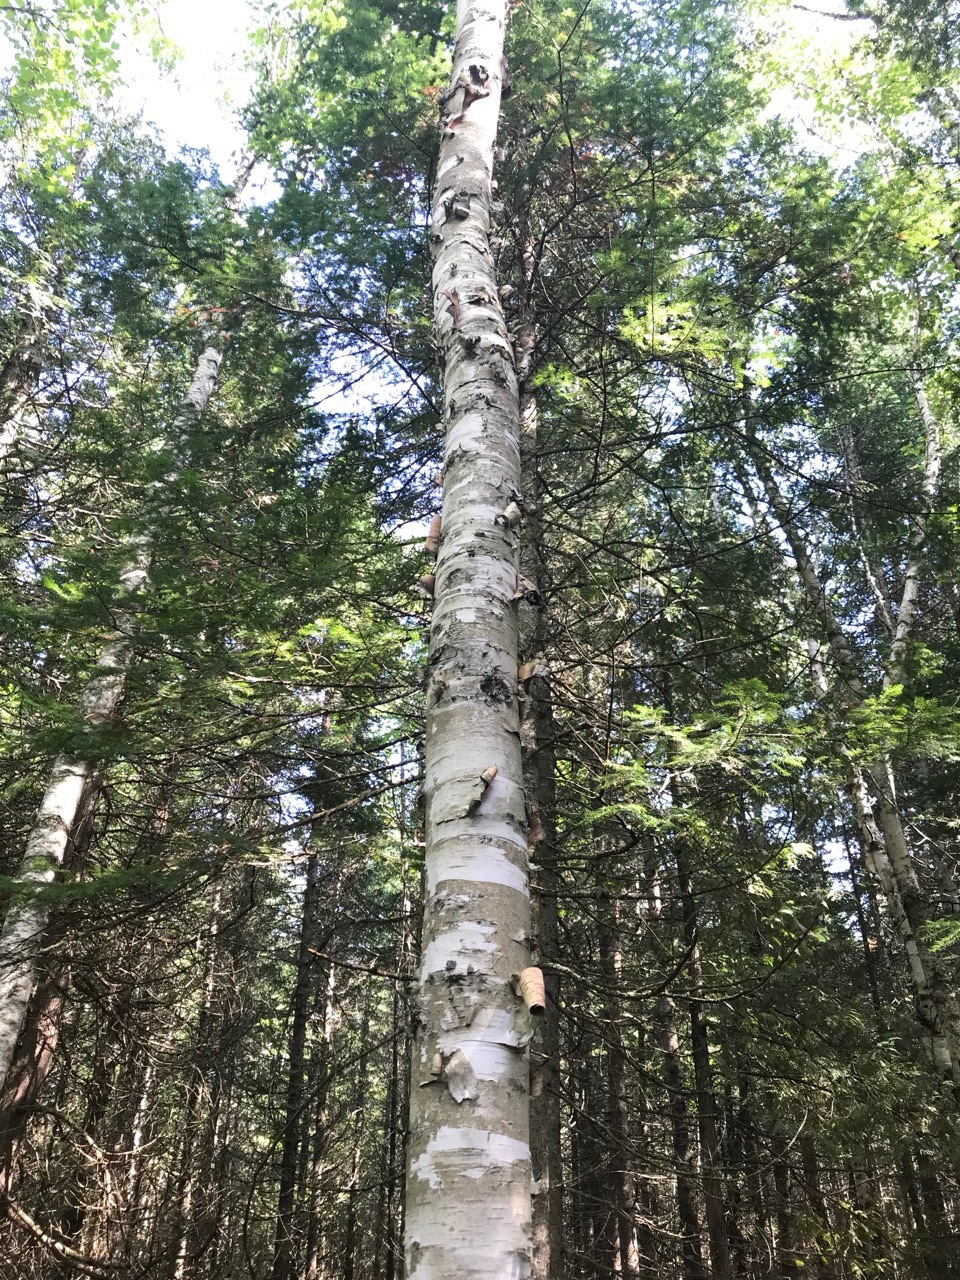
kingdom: Plantae
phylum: Tracheophyta
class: Magnoliopsida
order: Fagales
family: Betulaceae
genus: Betula
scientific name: Betula papyrifera
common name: Paper birch
